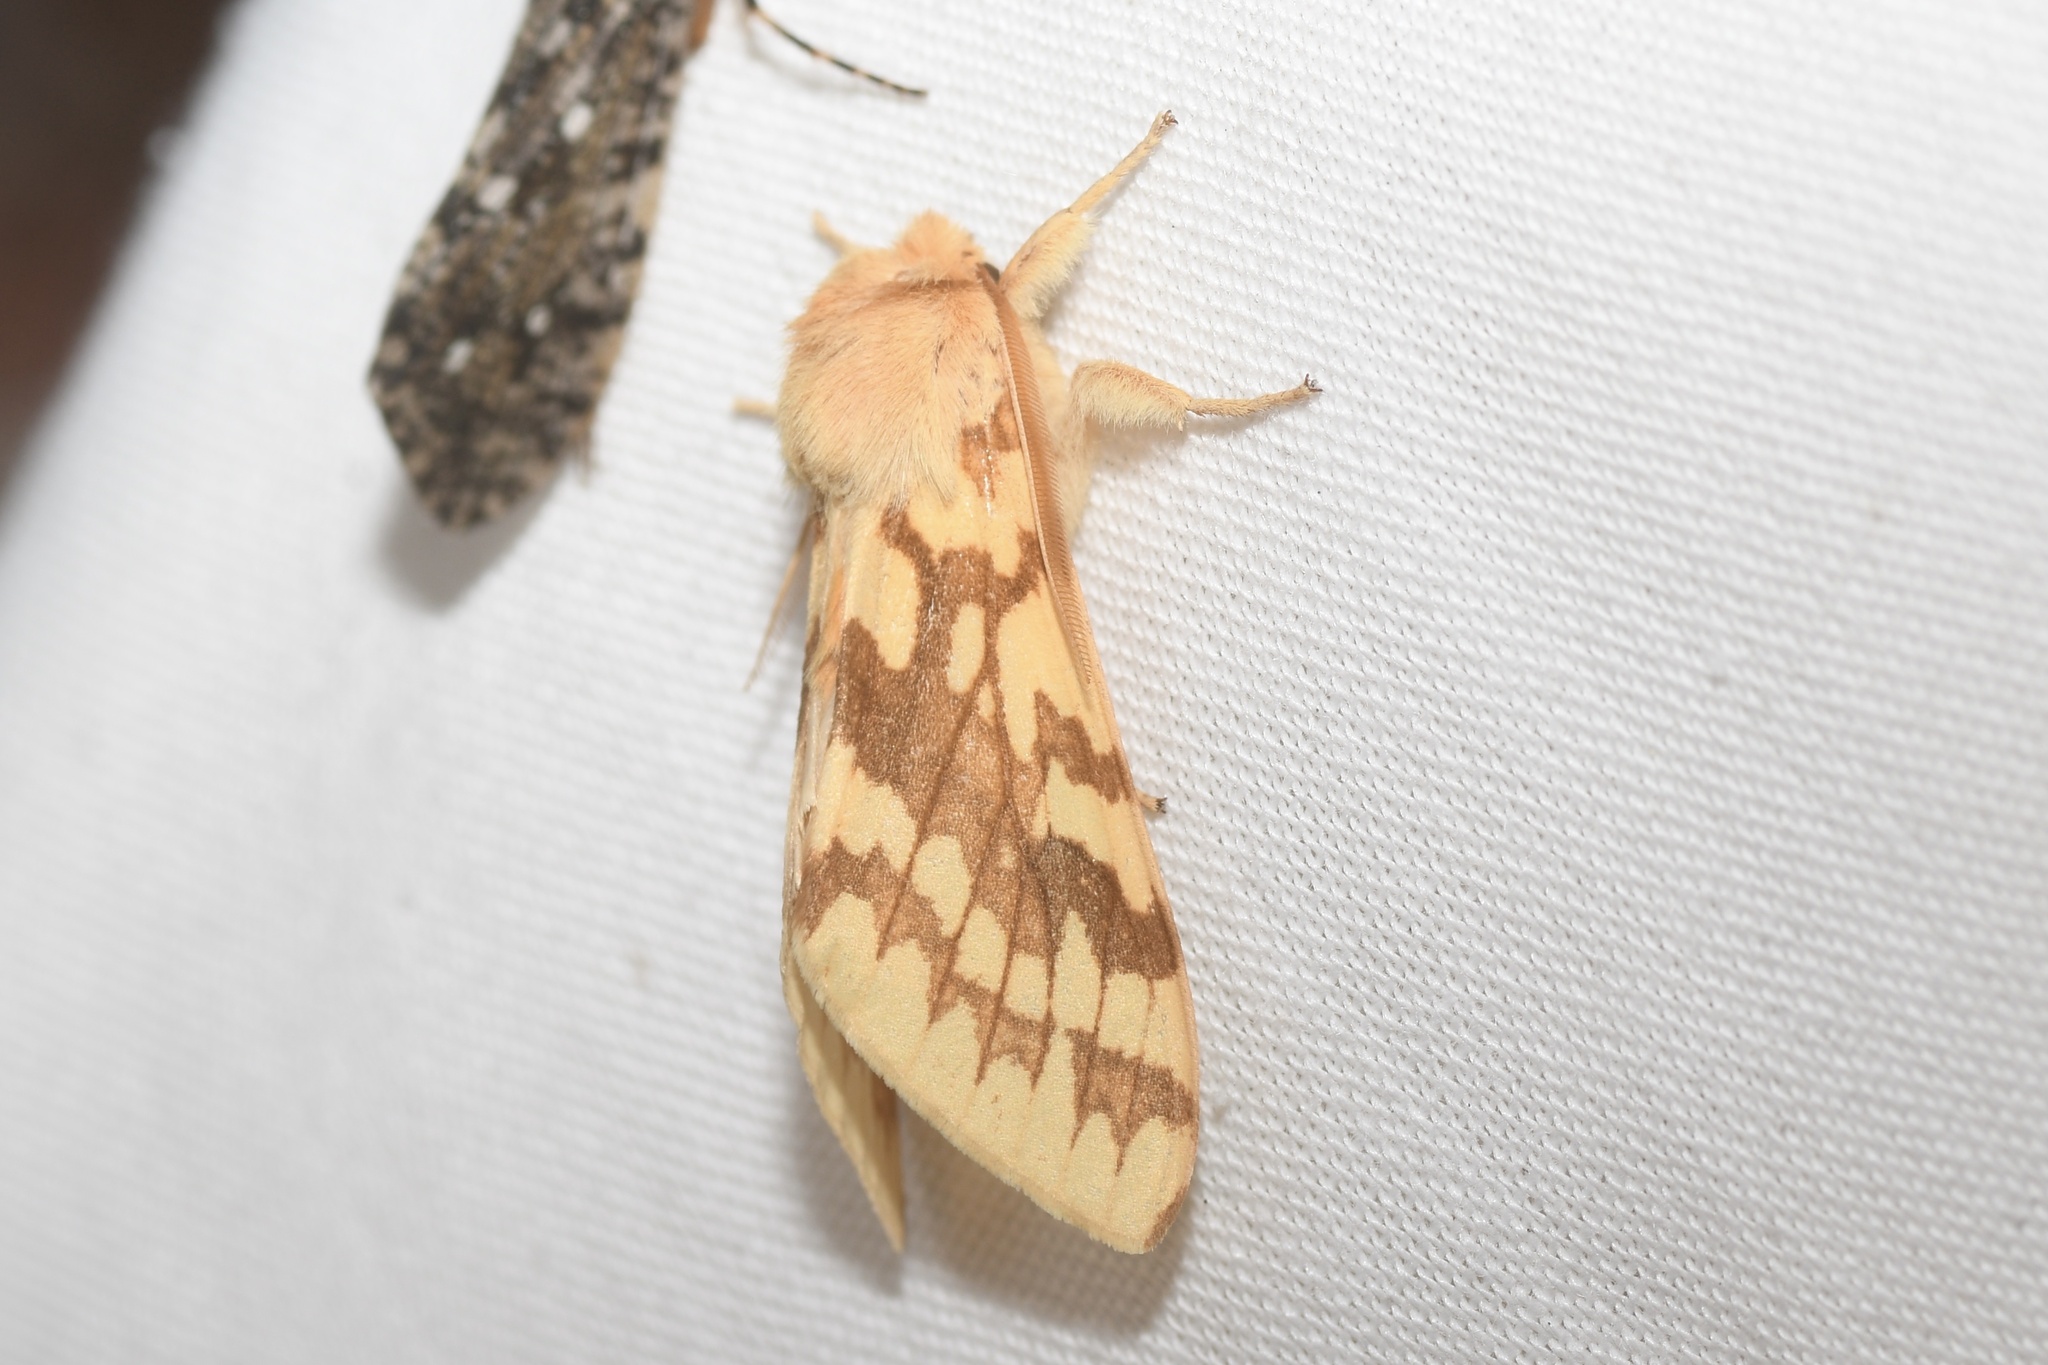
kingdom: Animalia
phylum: Arthropoda
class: Insecta
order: Lepidoptera
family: Erebidae
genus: Lophocampa
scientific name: Lophocampa maculata
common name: Spotted tussock moth
